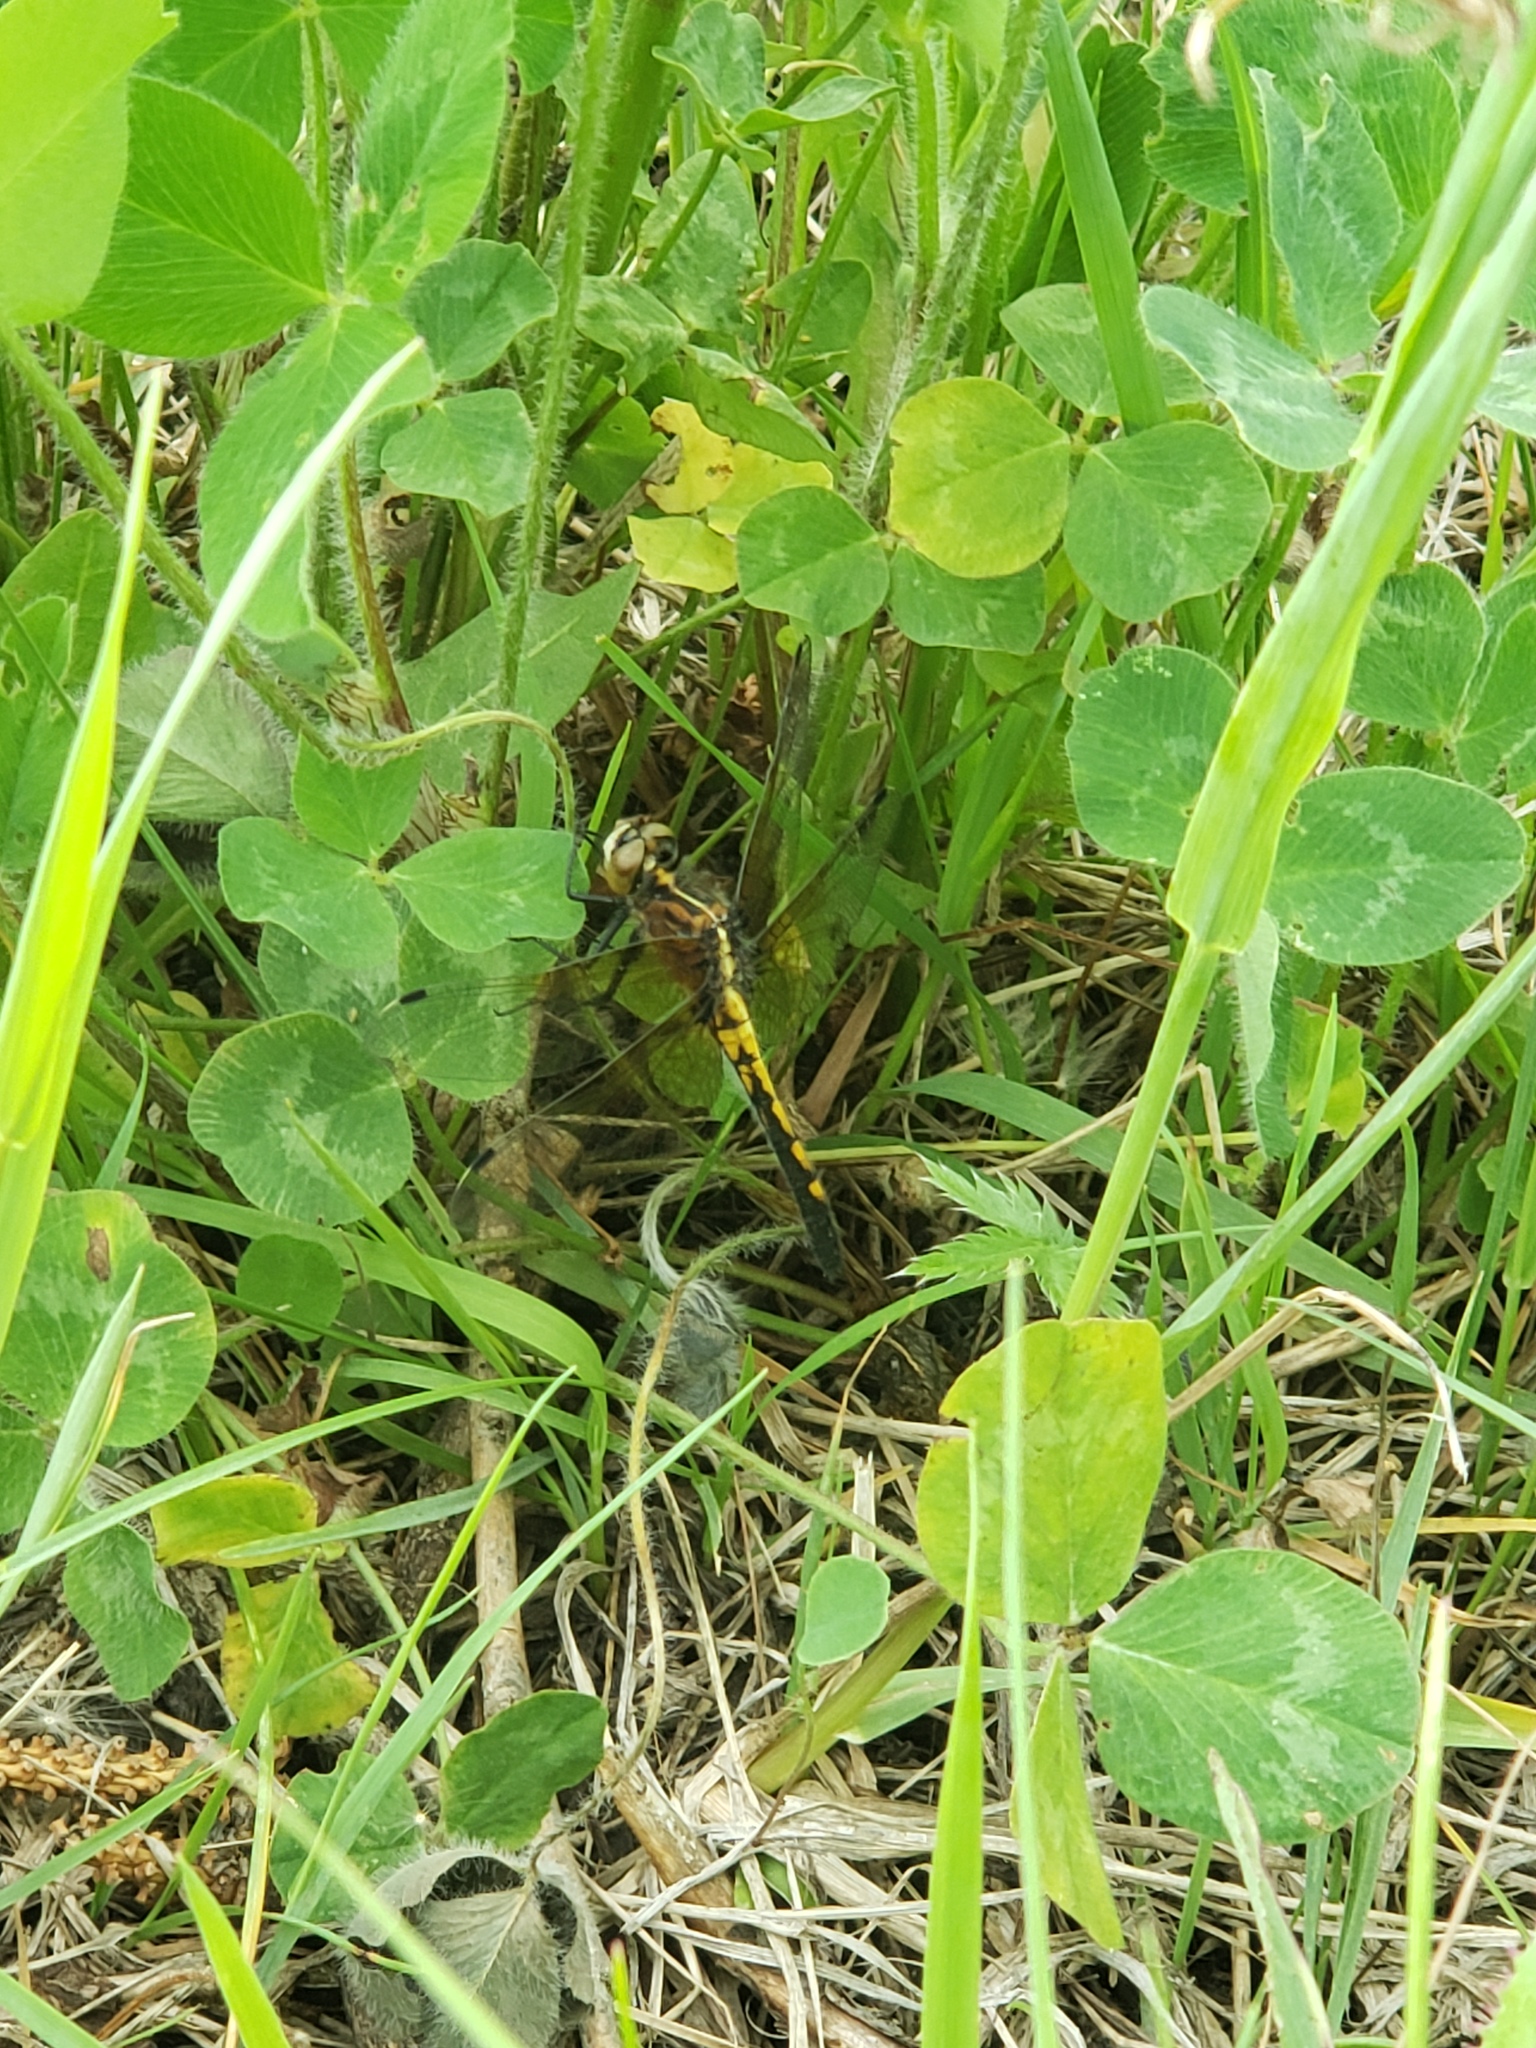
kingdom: Animalia
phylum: Arthropoda
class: Insecta
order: Odonata
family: Libellulidae
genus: Leucorrhinia
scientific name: Leucorrhinia intacta
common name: Dot-tailed whiteface
